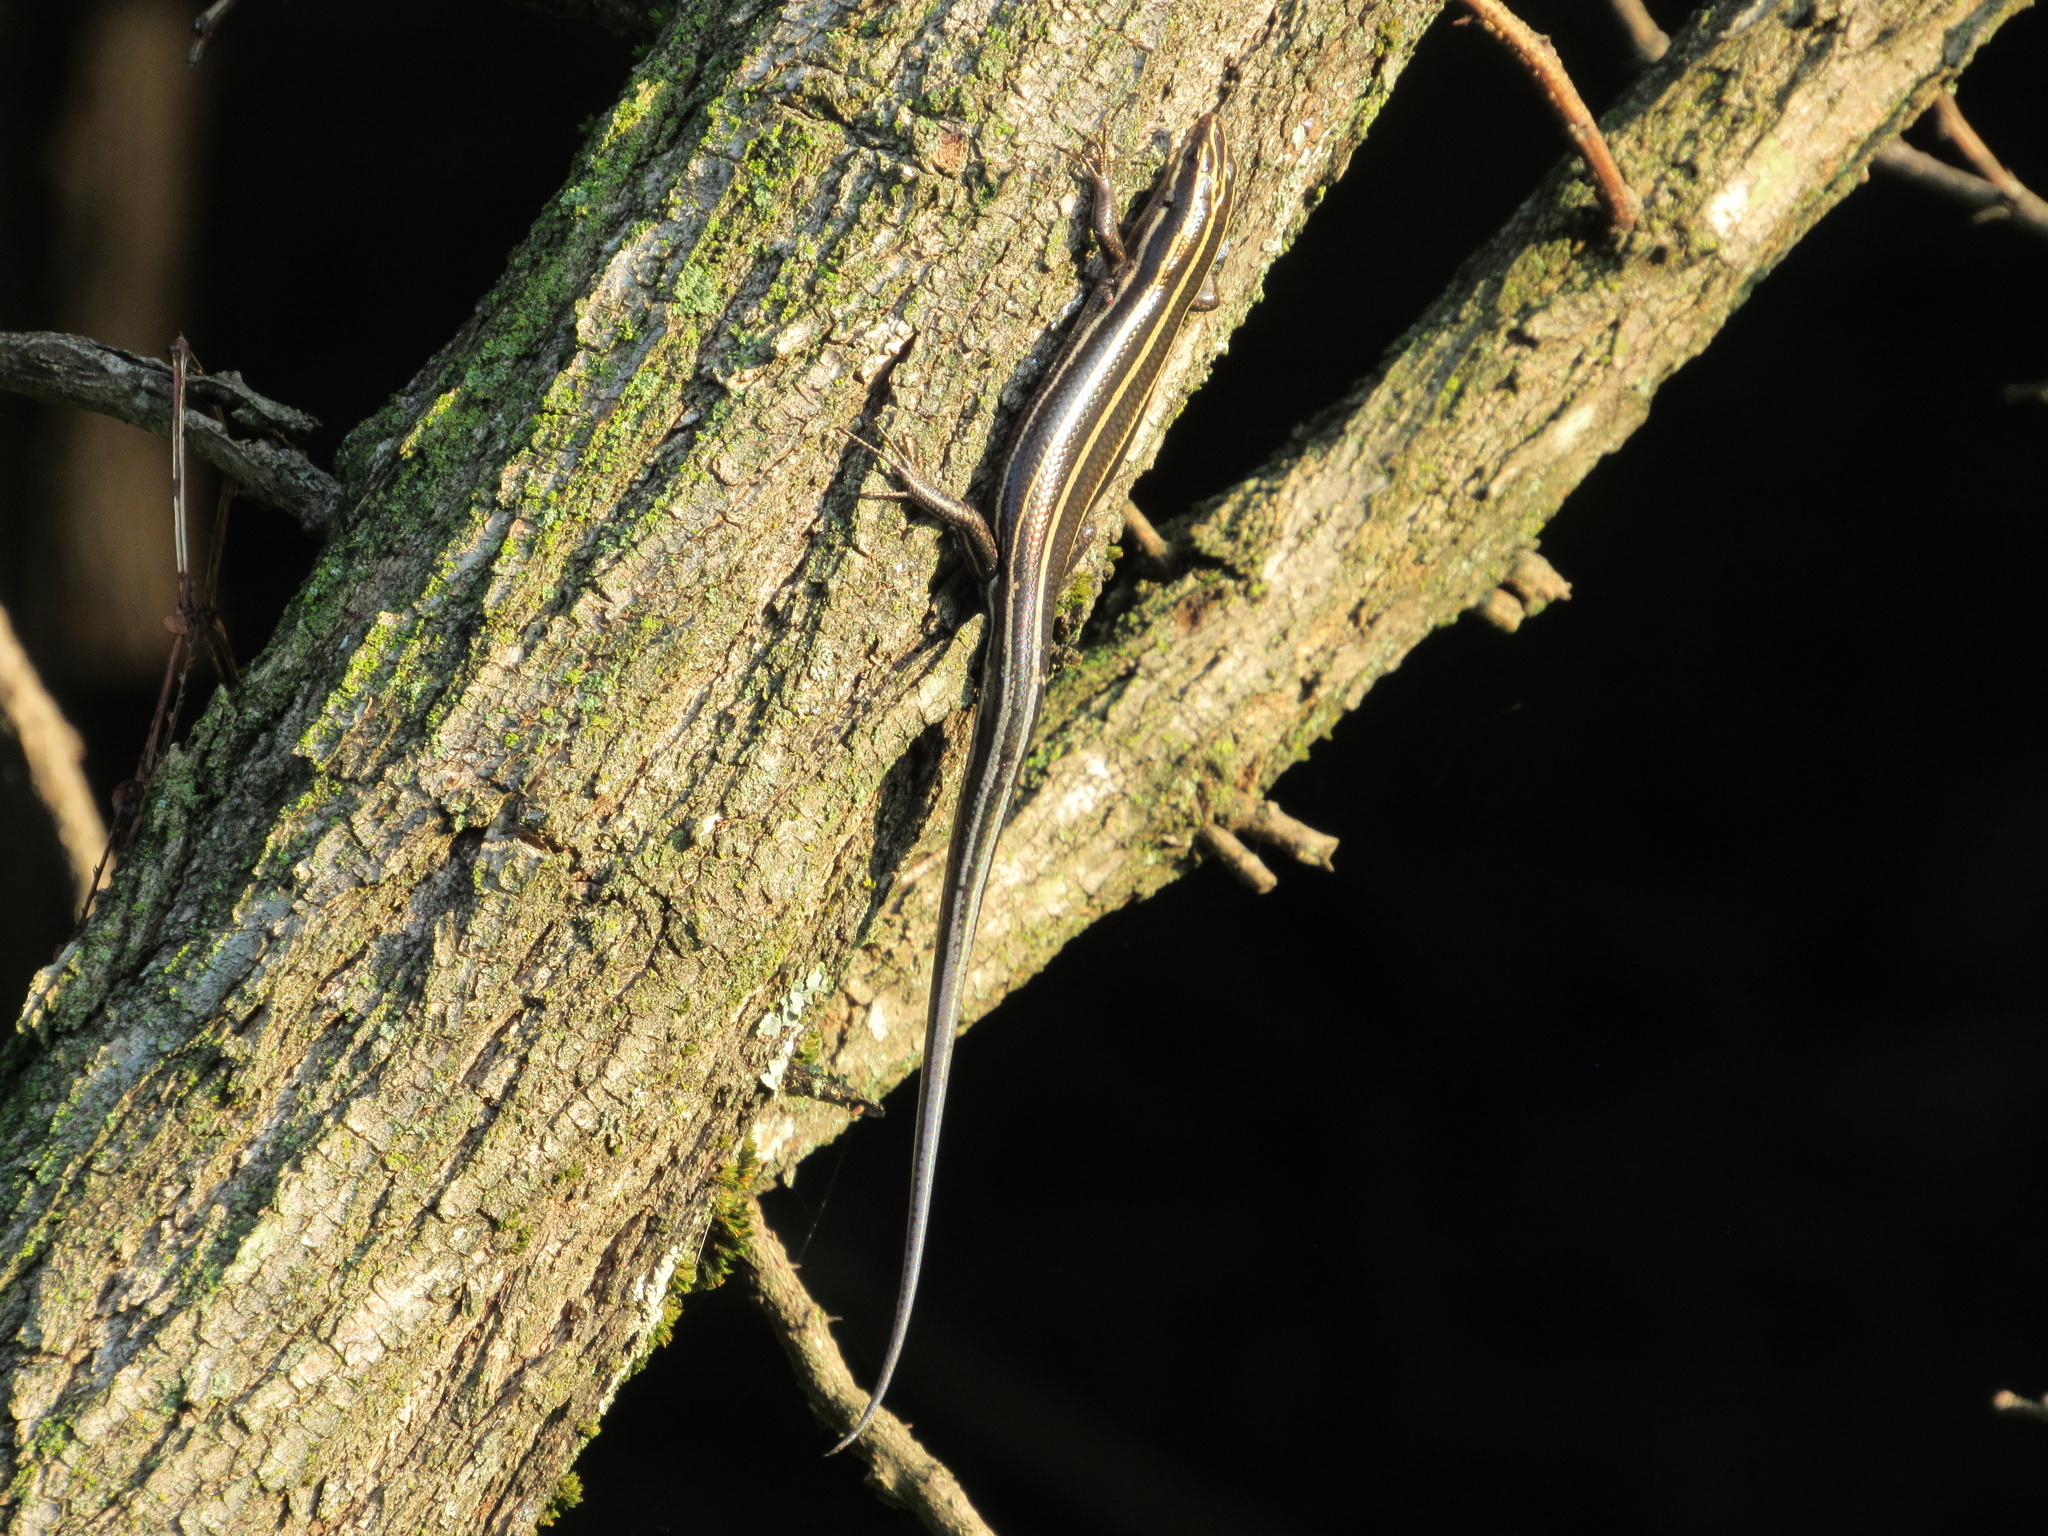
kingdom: Animalia
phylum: Chordata
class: Squamata
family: Scincidae
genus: Plestiodon
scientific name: Plestiodon fasciatus
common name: Five-lined skink
